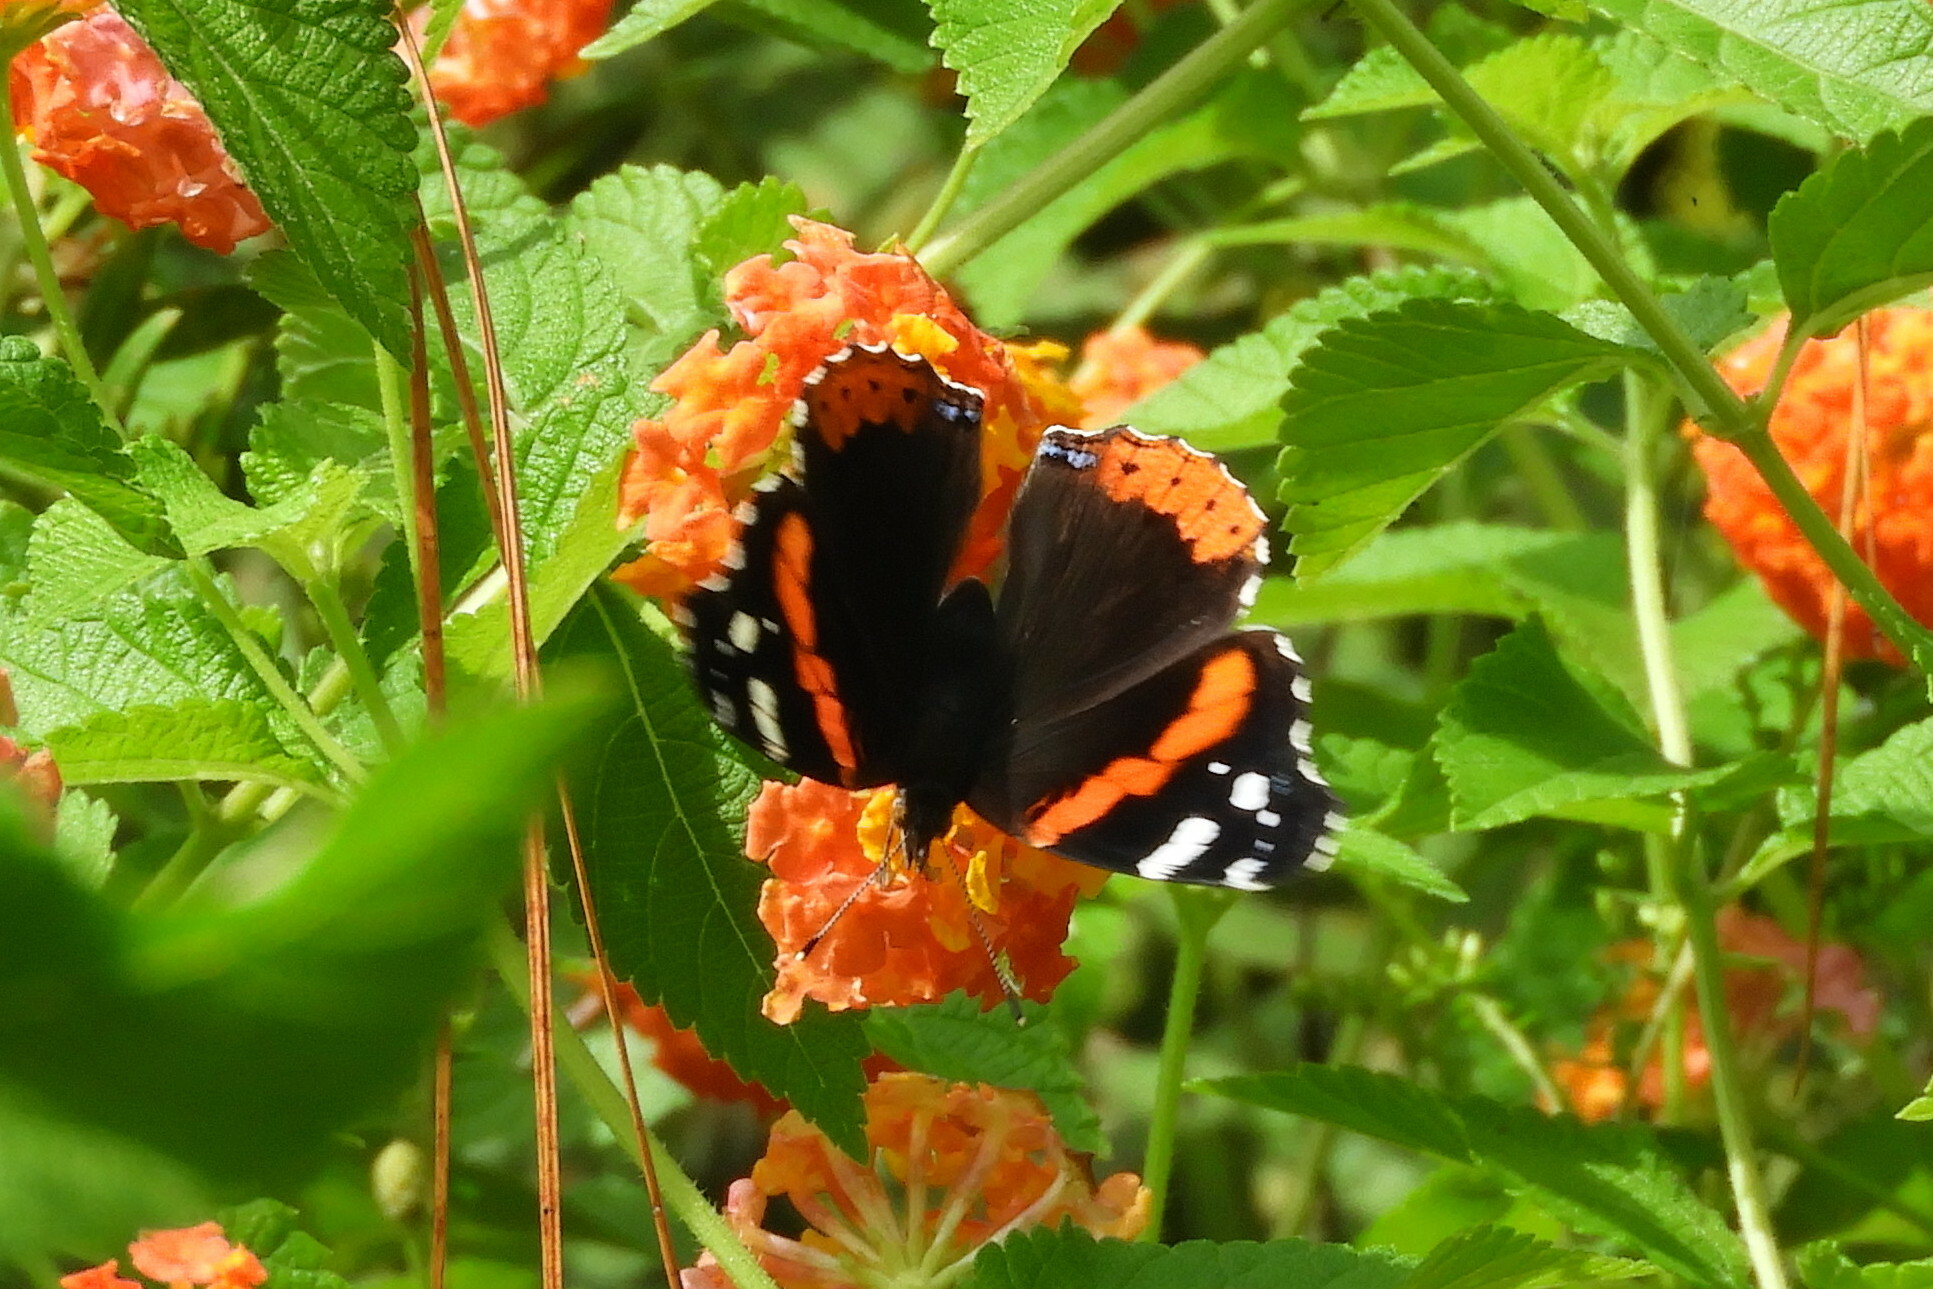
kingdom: Animalia
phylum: Arthropoda
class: Insecta
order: Lepidoptera
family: Nymphalidae
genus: Vanessa
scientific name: Vanessa atalanta
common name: Red admiral
